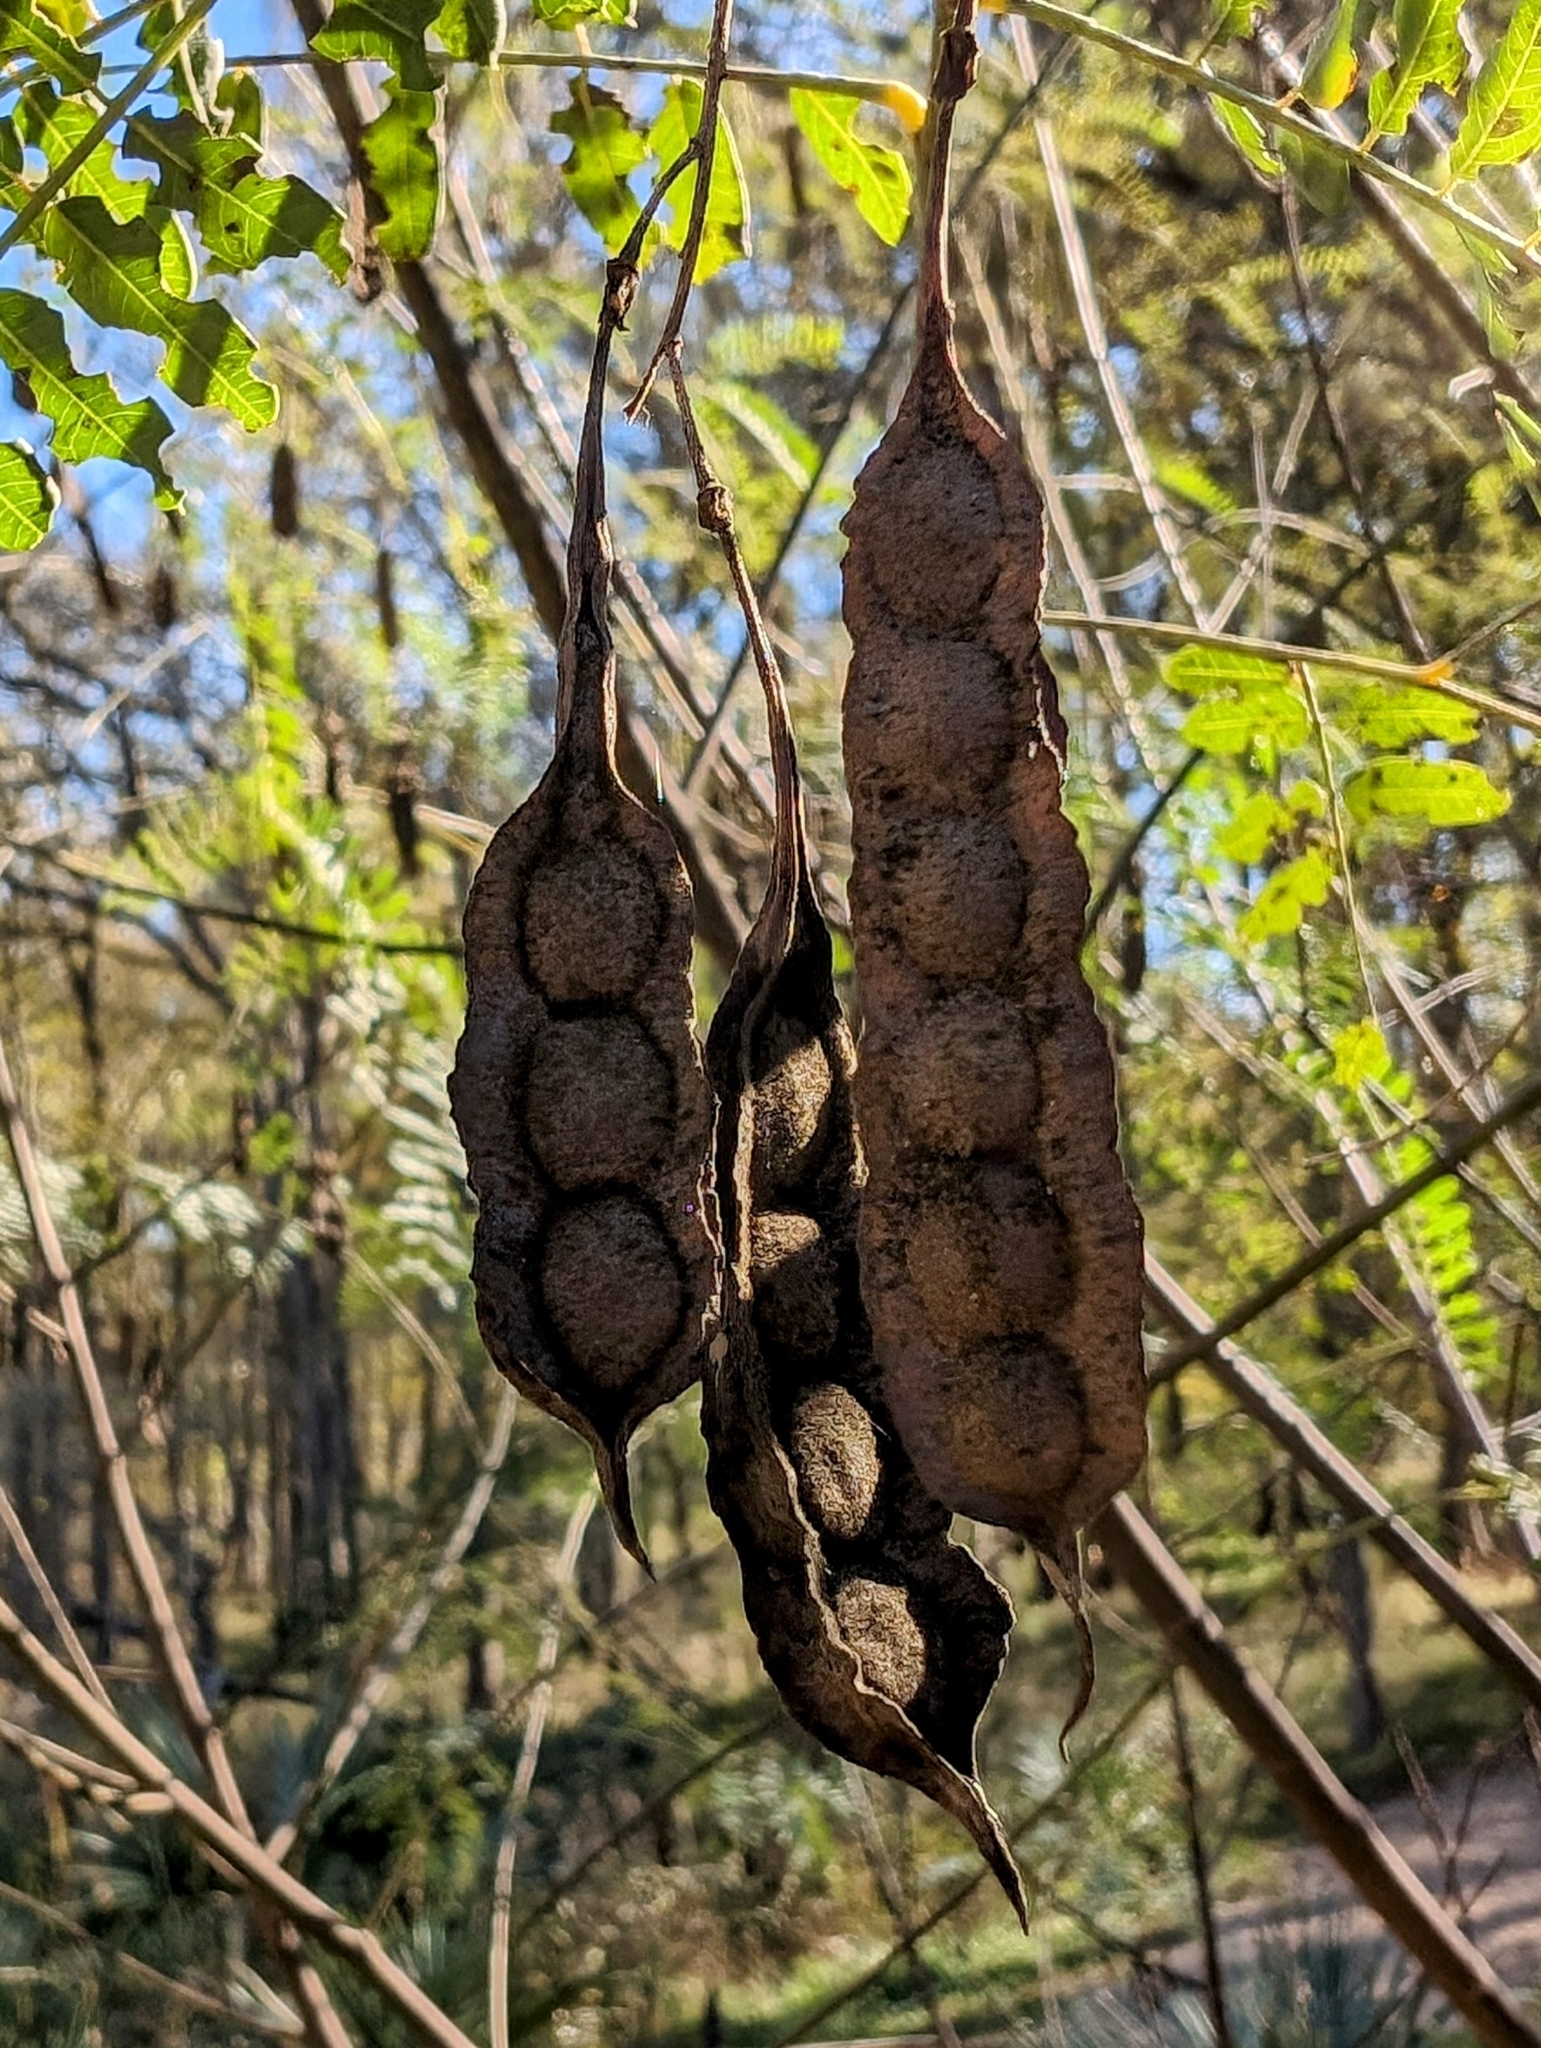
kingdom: Plantae
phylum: Tracheophyta
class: Magnoliopsida
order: Fabales
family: Fabaceae
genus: Sesbania
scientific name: Sesbania drummondii
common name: Poison-bean
